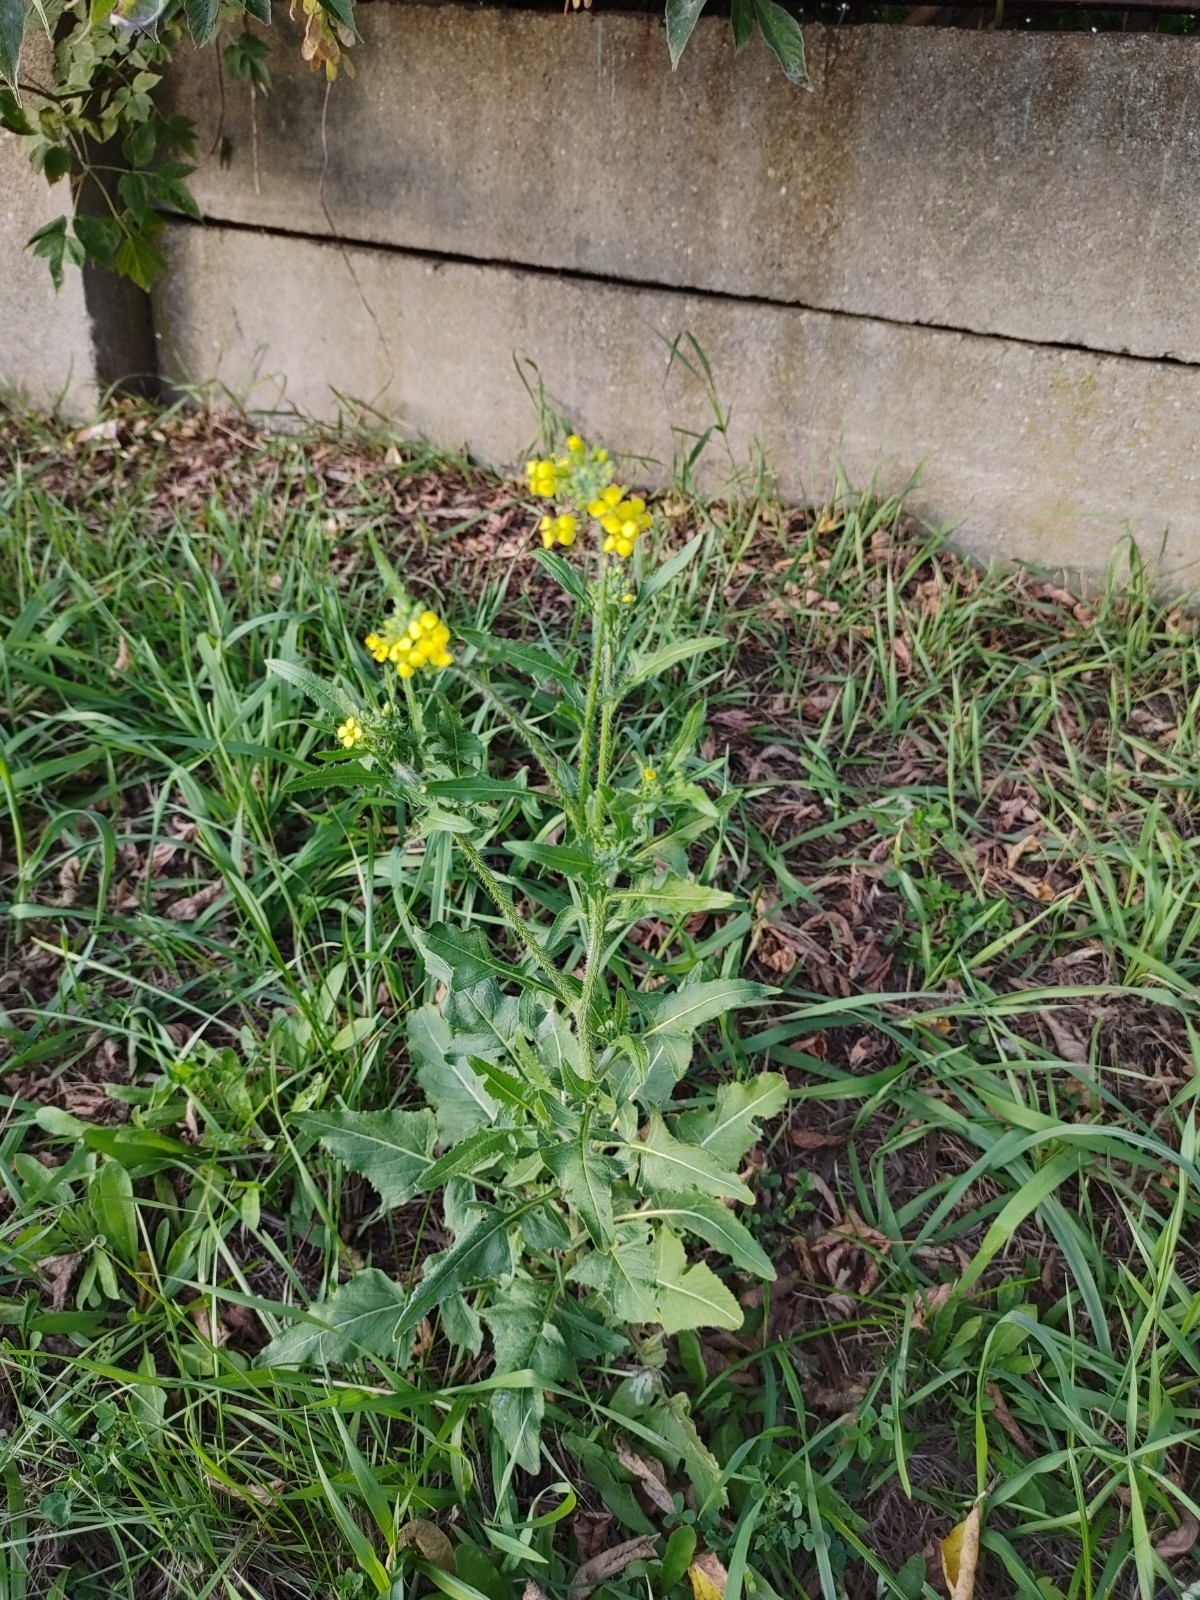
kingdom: Plantae
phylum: Tracheophyta
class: Magnoliopsida
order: Brassicales
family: Brassicaceae
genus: Sisymbrium
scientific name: Sisymbrium loeselii
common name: False london-rocket
